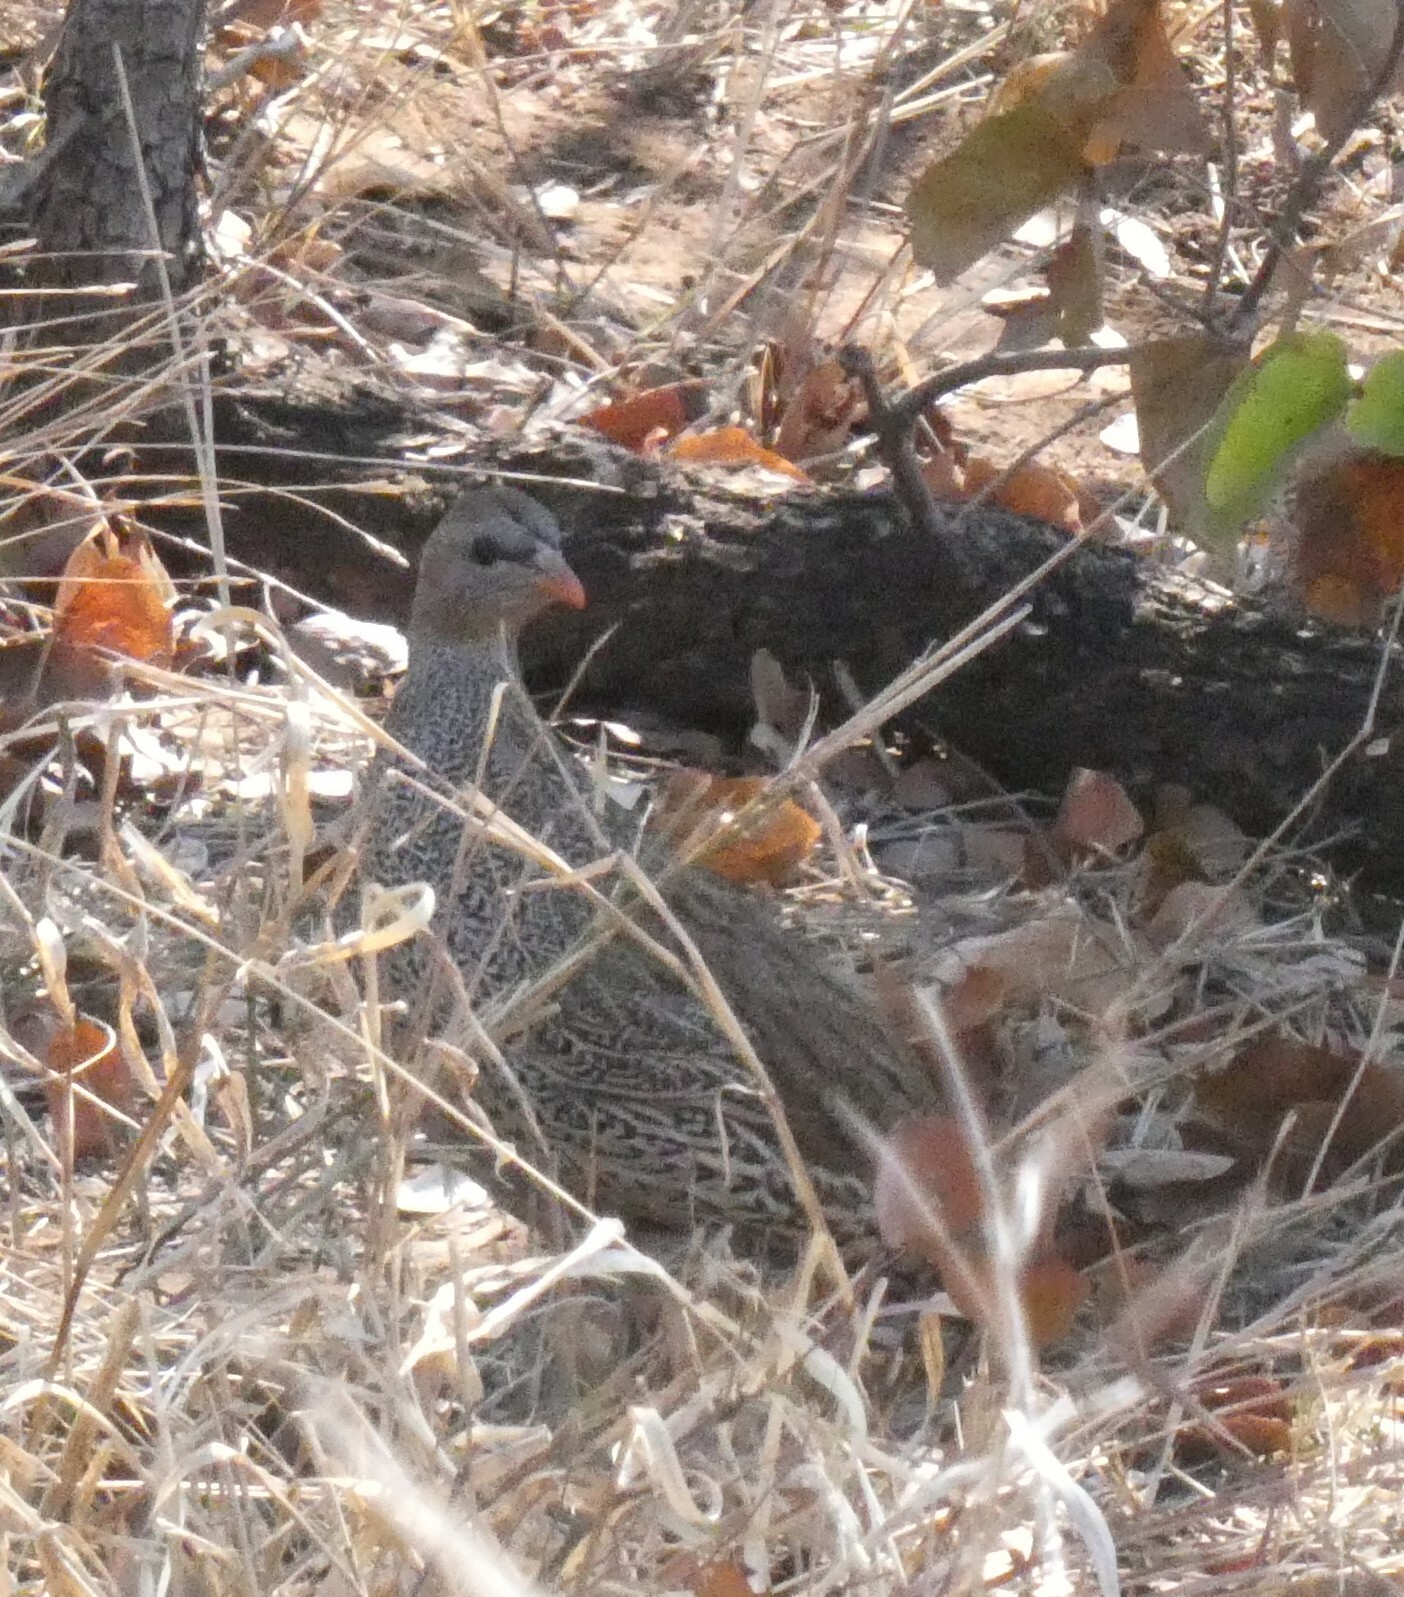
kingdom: Animalia
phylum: Chordata
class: Aves
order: Galliformes
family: Phasianidae
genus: Pternistis
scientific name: Pternistis natalensis
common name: Natal spurfowl
